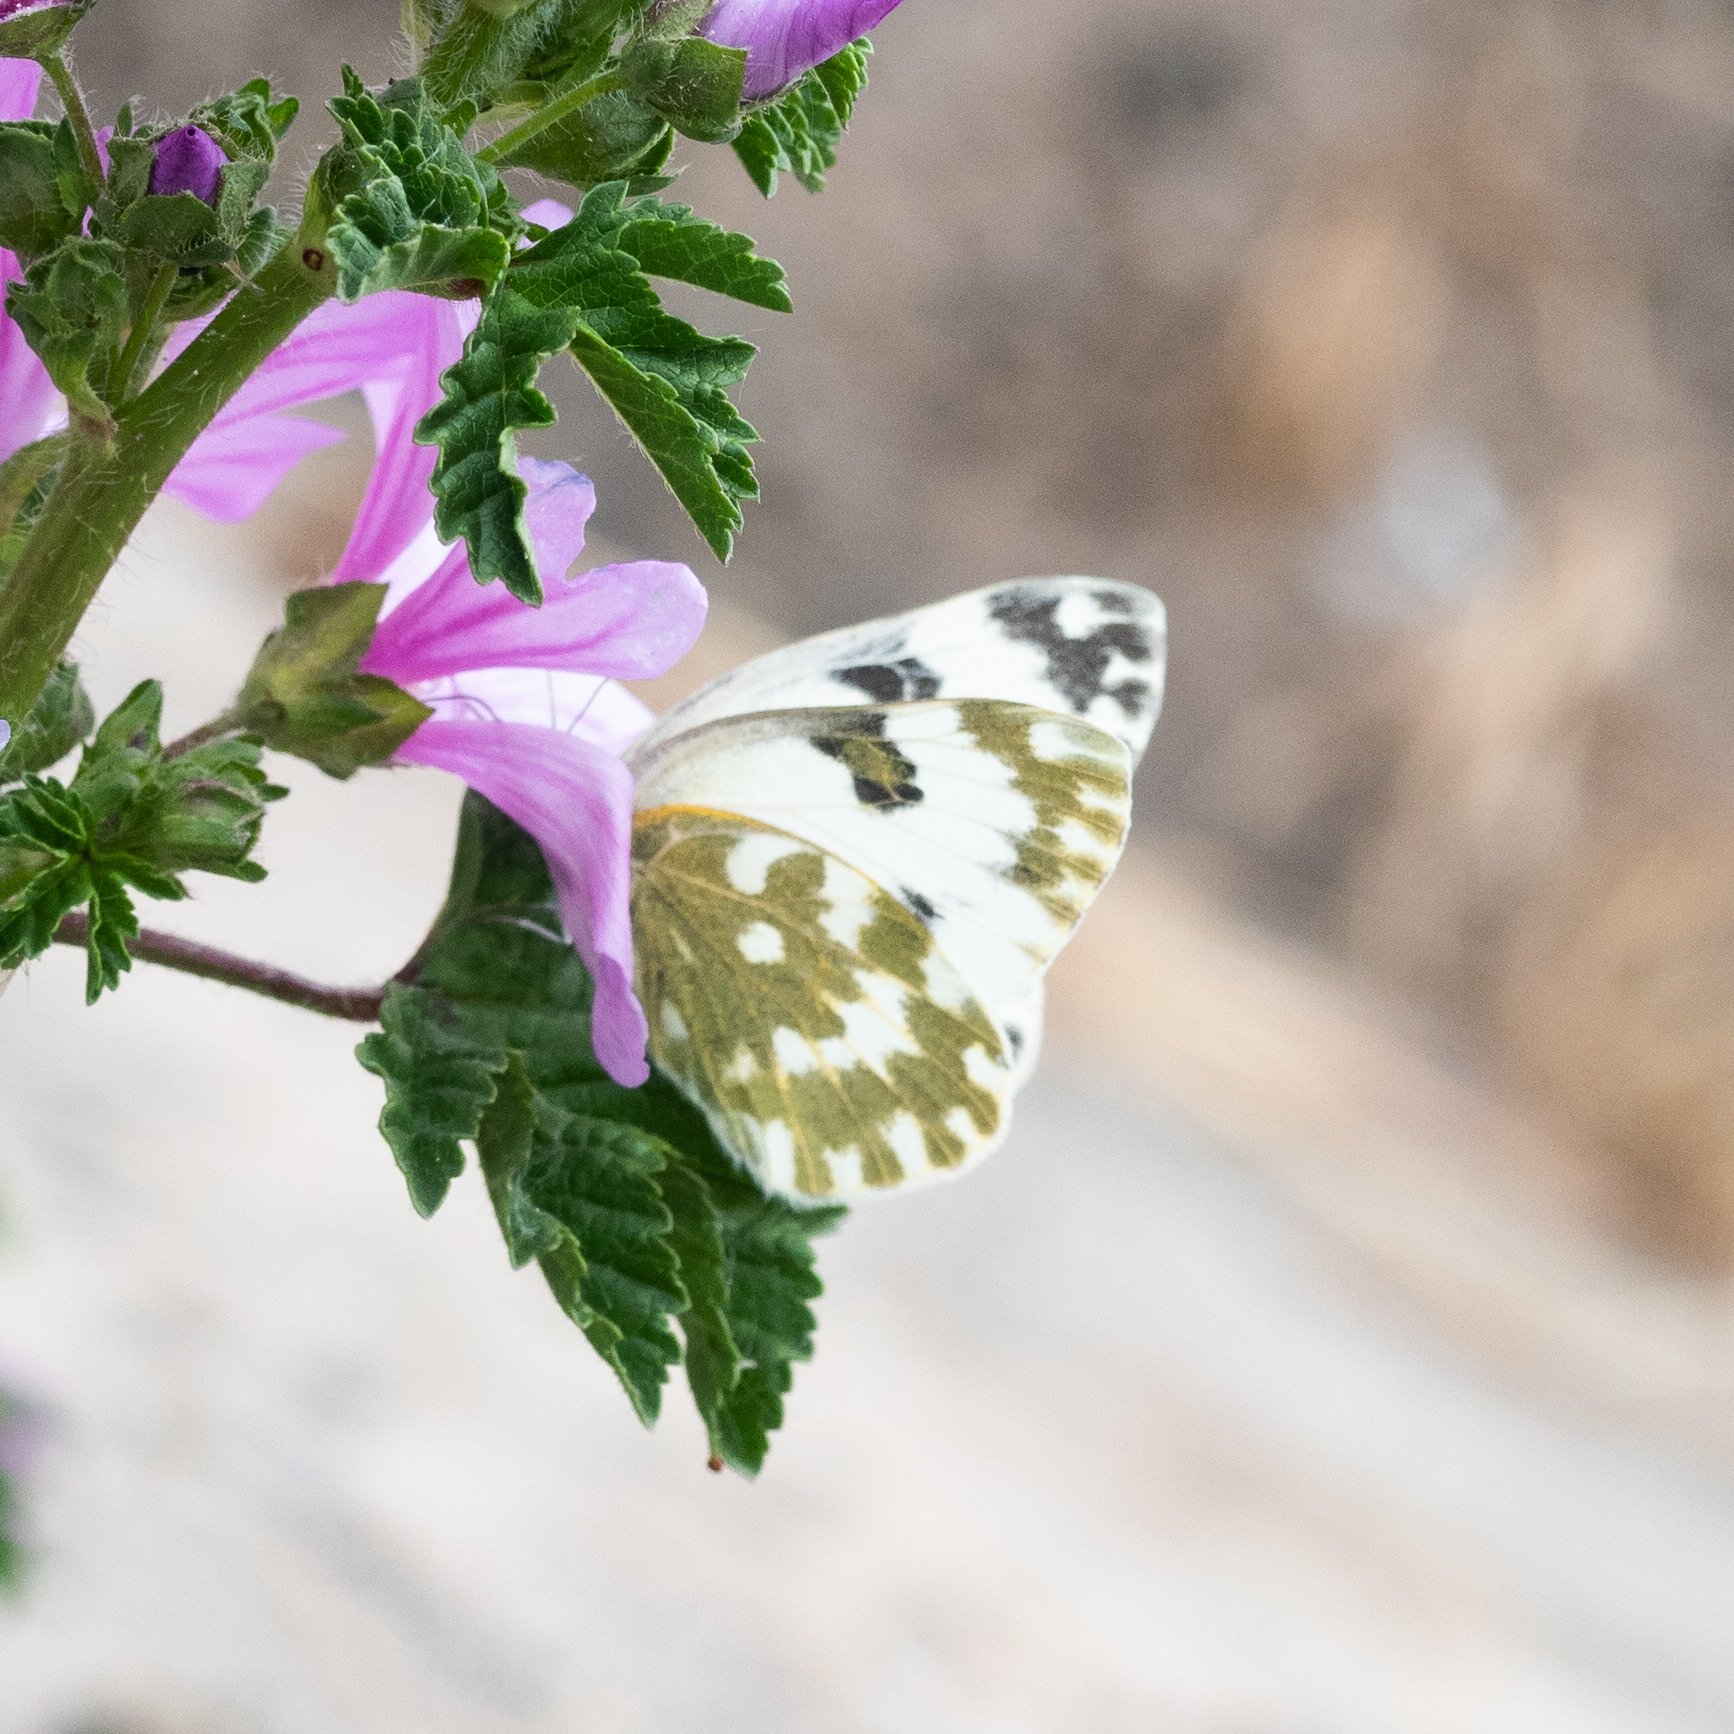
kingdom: Animalia
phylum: Arthropoda
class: Insecta
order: Lepidoptera
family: Pieridae
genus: Pontia
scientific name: Pontia edusa
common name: Eastern bath white
